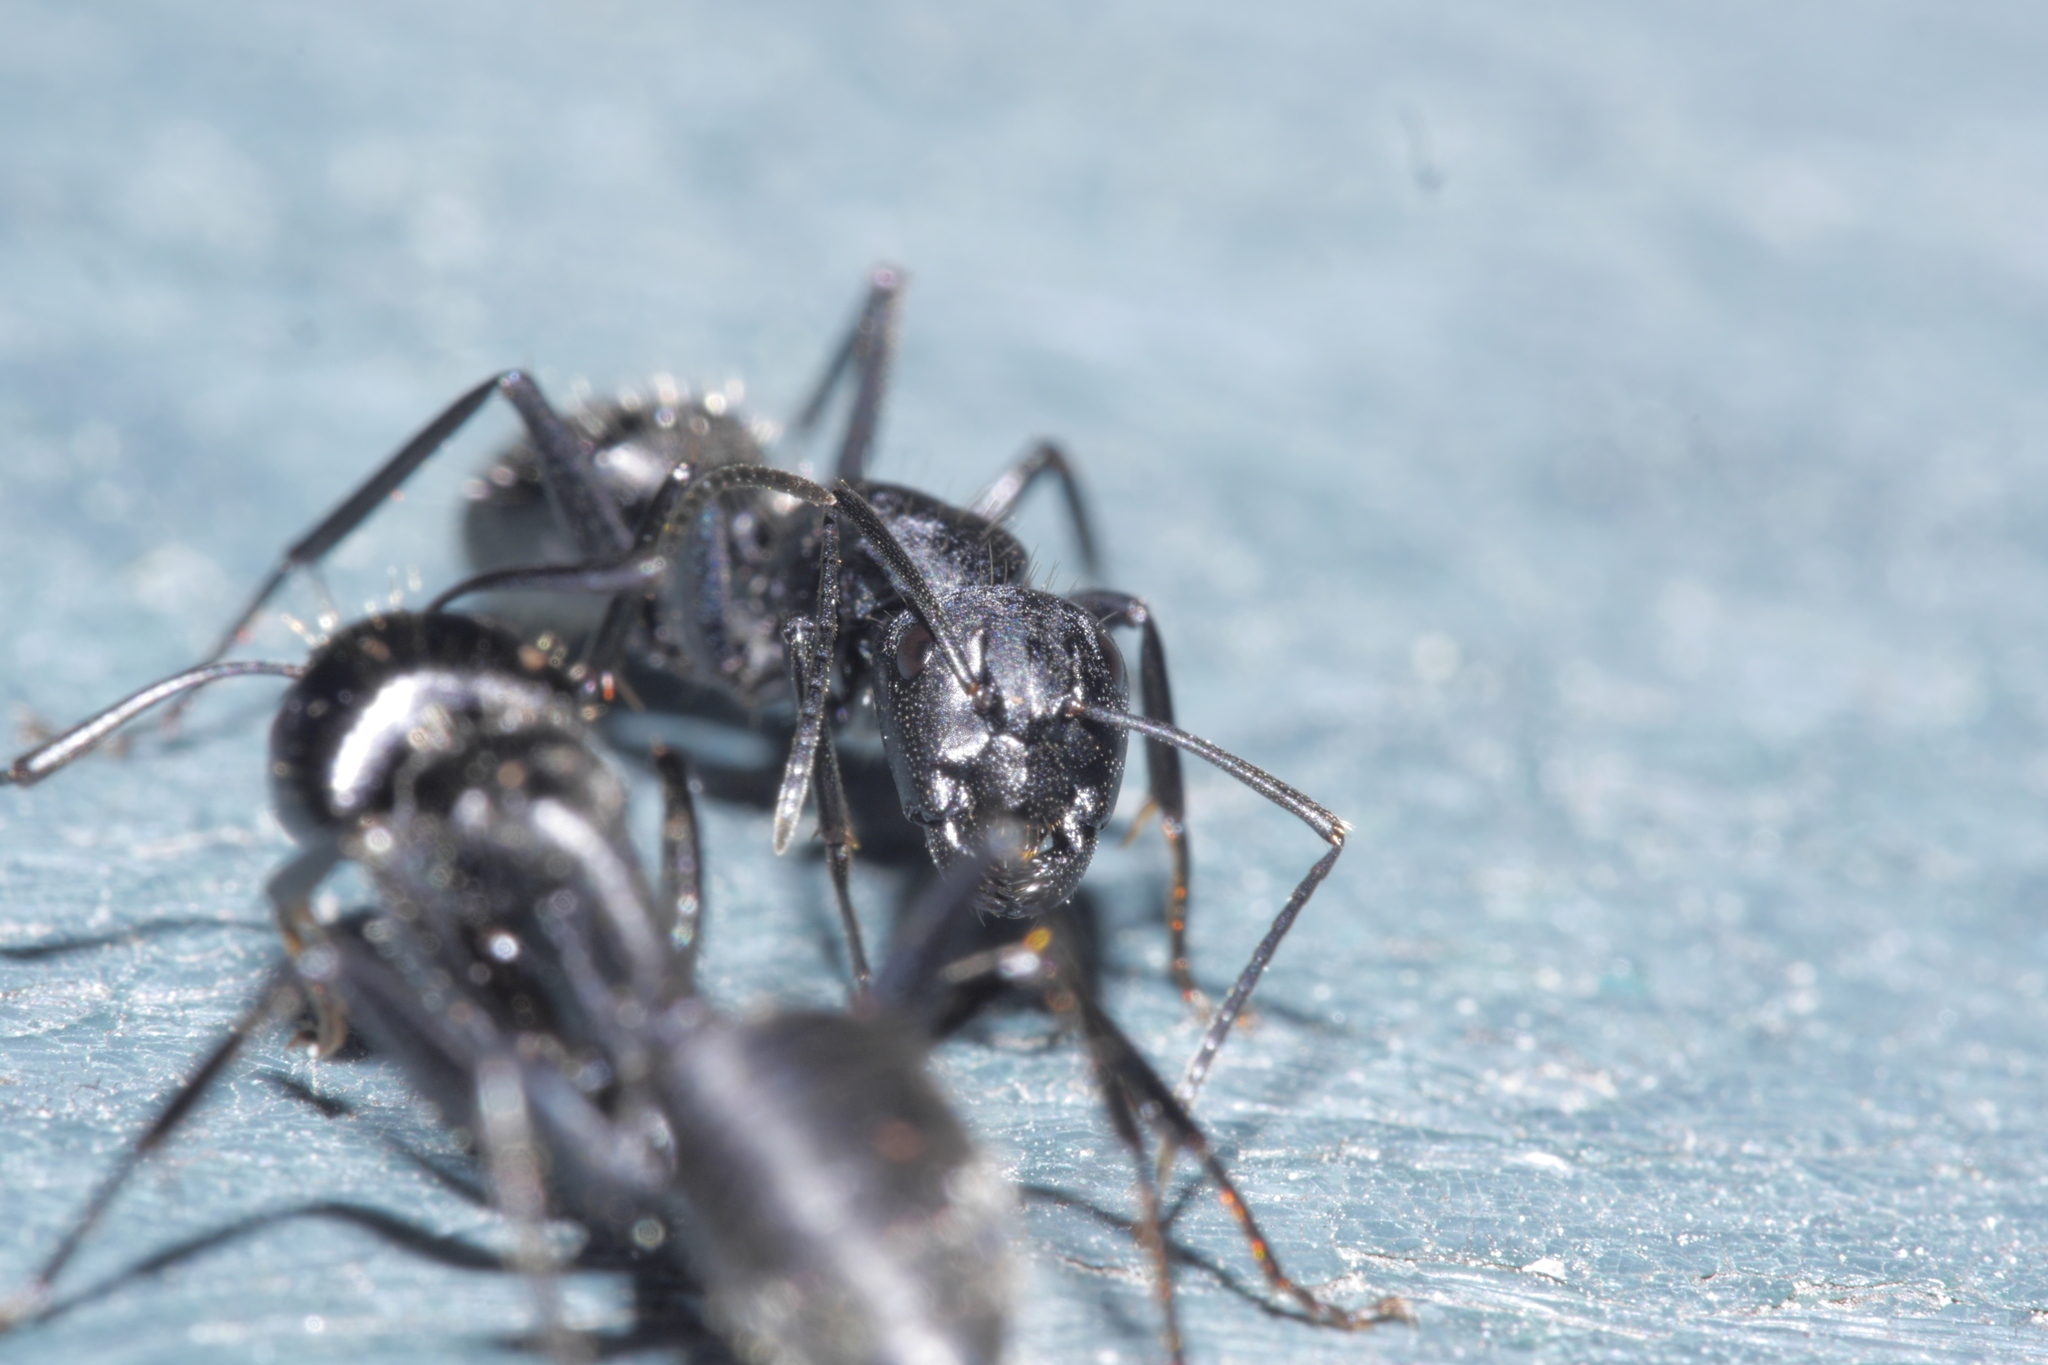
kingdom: Animalia
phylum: Arthropoda
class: Insecta
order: Hymenoptera
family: Formicidae
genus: Camponotus
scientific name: Camponotus vagus
